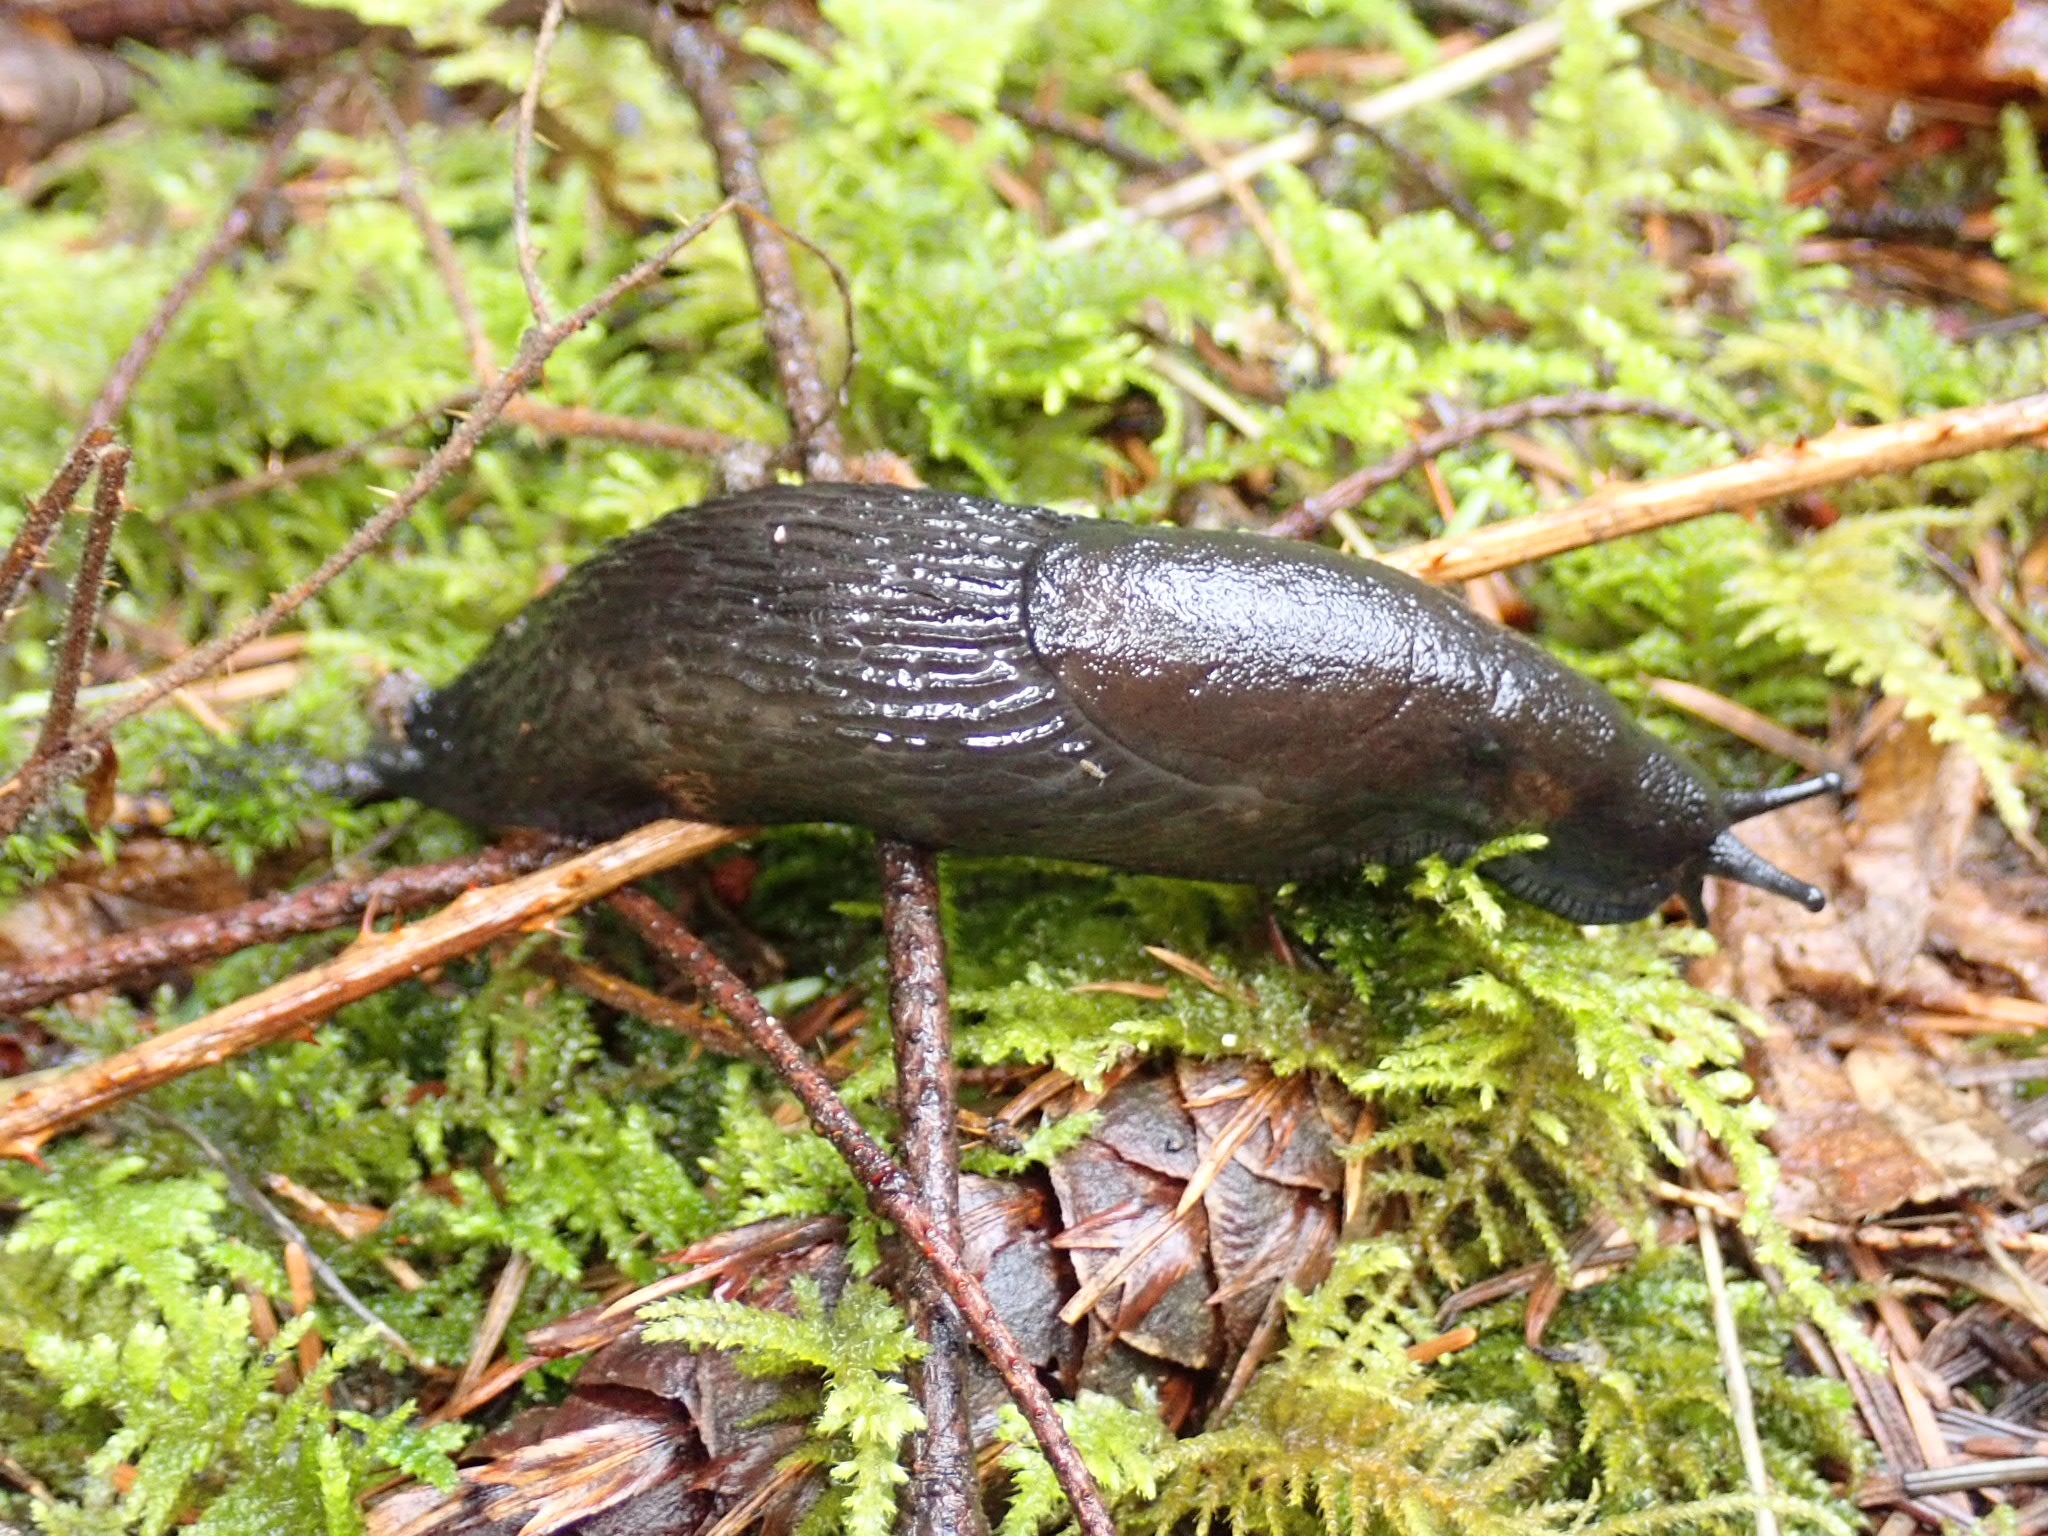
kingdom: Animalia
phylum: Mollusca
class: Gastropoda
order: Stylommatophora
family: Arionidae
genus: Arion
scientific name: Arion
